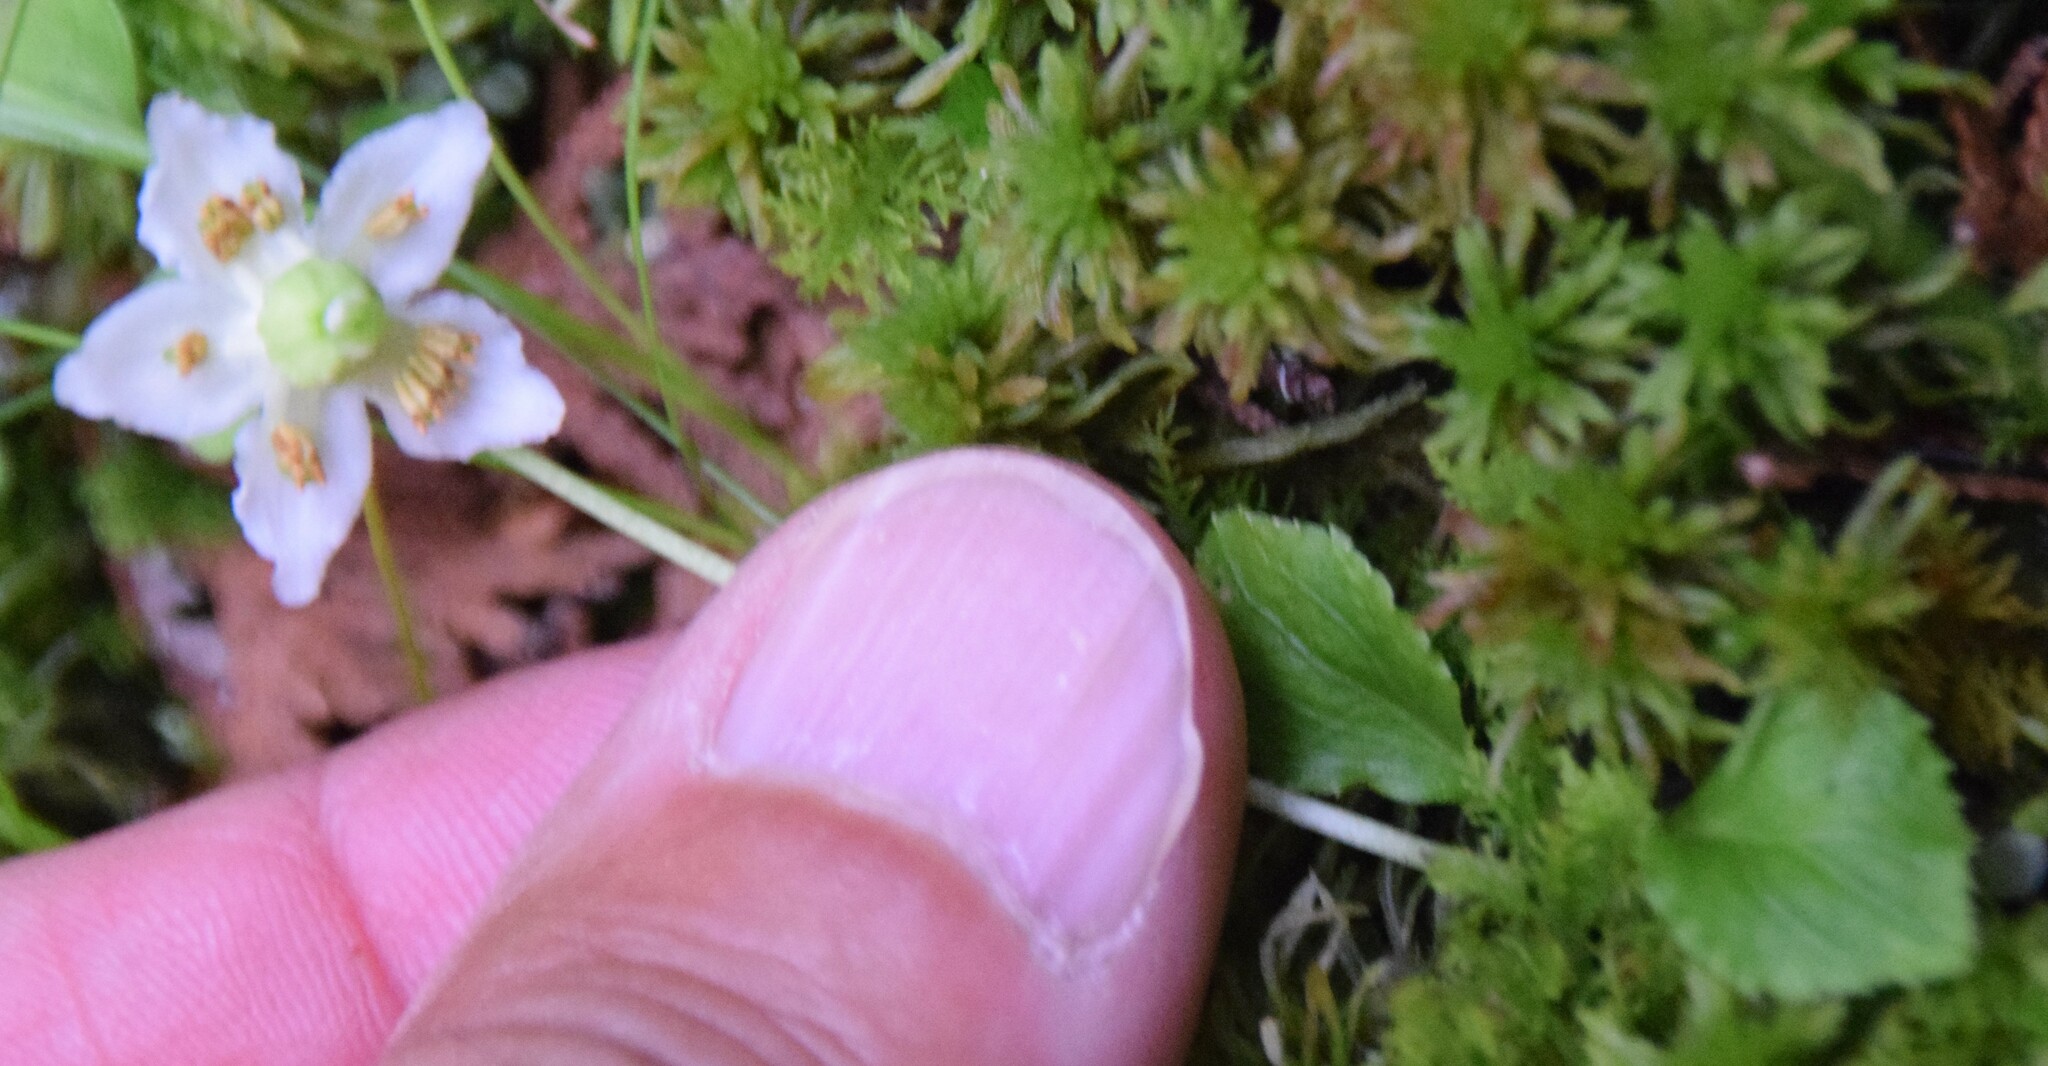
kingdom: Plantae
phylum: Tracheophyta
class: Magnoliopsida
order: Ericales
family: Ericaceae
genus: Moneses
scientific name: Moneses uniflora
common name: One-flowered wintergreen
